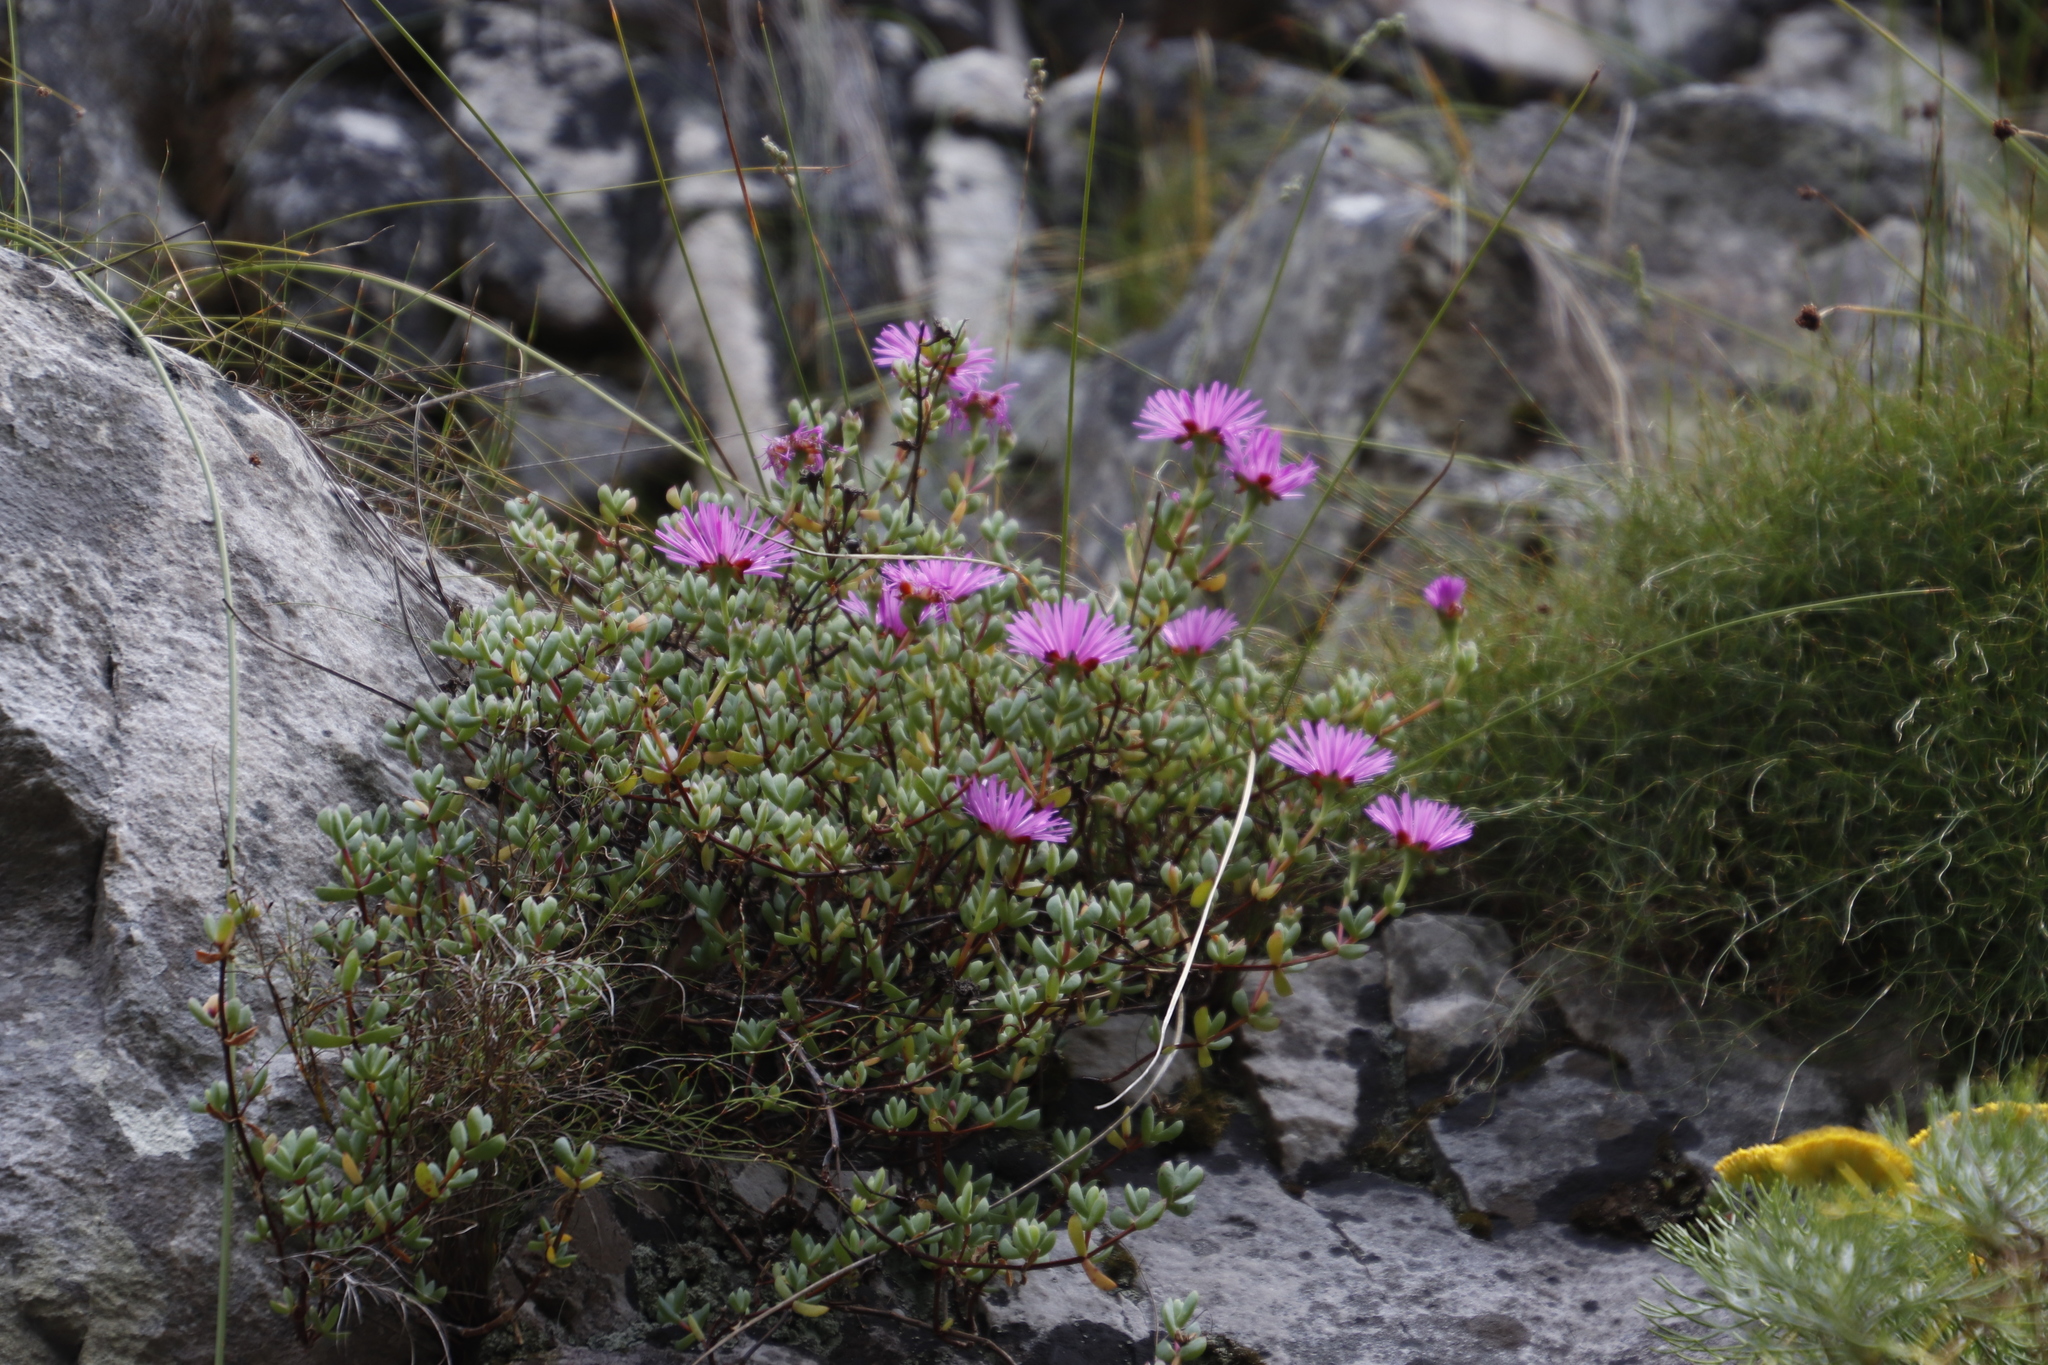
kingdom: Plantae
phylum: Tracheophyta
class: Magnoliopsida
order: Caryophyllales
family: Aizoaceae
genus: Oscularia
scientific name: Oscularia falciformis
